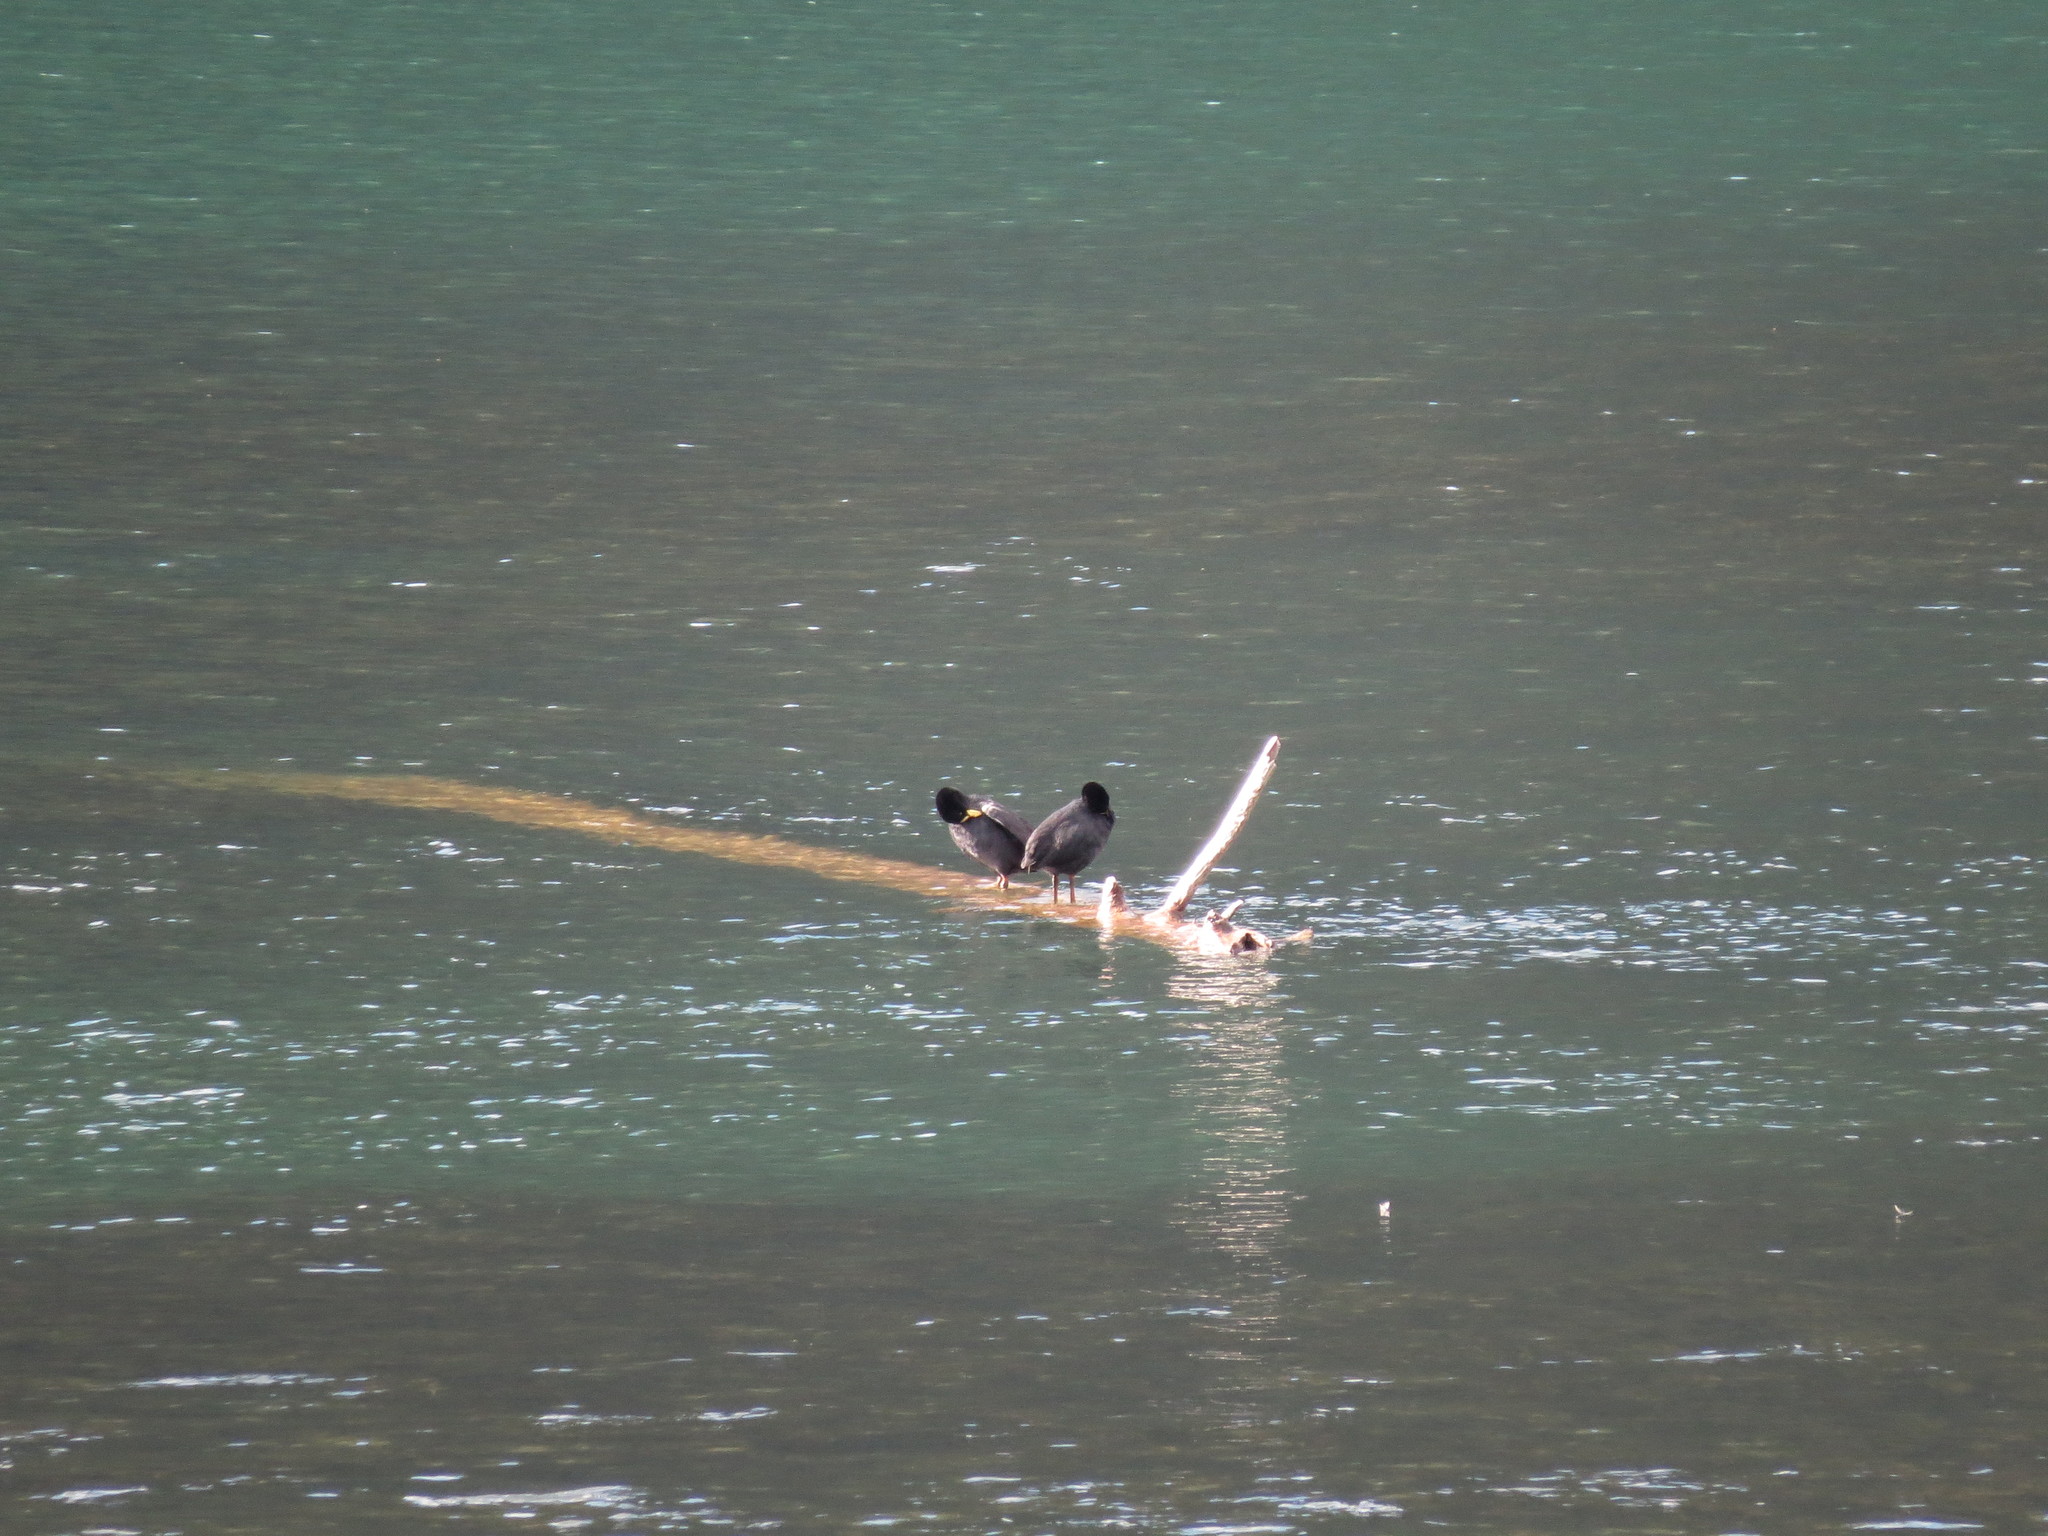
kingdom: Animalia
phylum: Chordata
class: Aves
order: Gruiformes
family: Rallidae
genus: Fulica
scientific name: Fulica armillata
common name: Red-gartered coot
